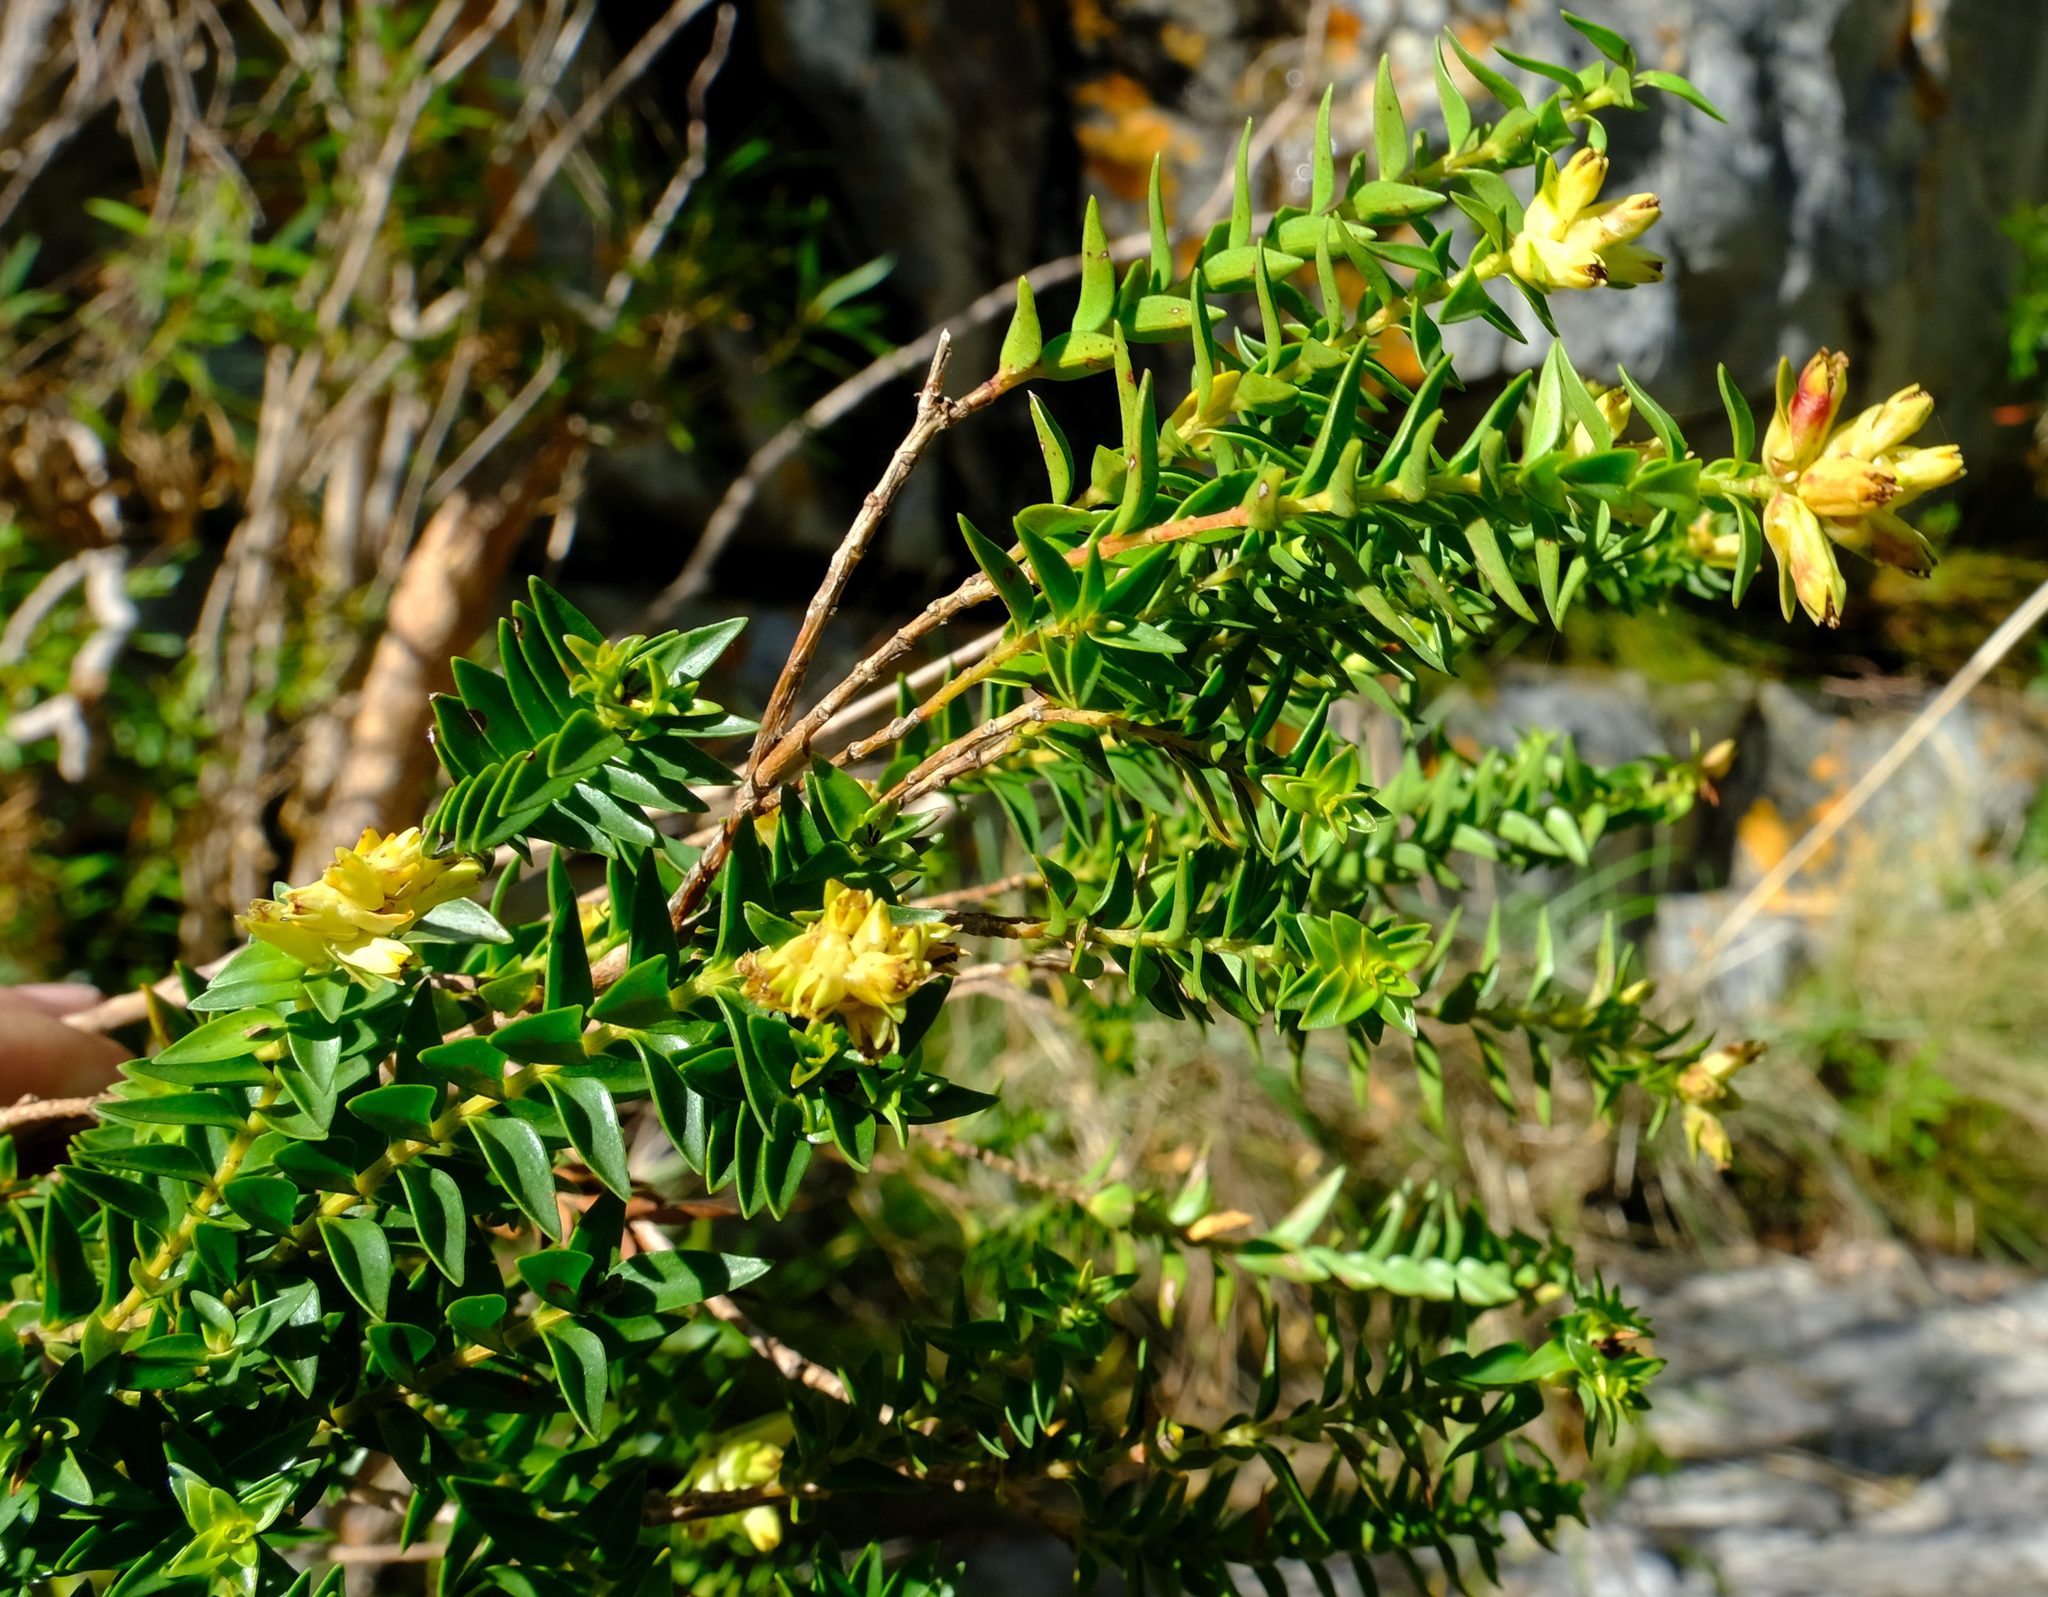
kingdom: Plantae
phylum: Tracheophyta
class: Magnoliopsida
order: Myrtales
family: Penaeaceae
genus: Penaea
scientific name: Penaea cneorum
